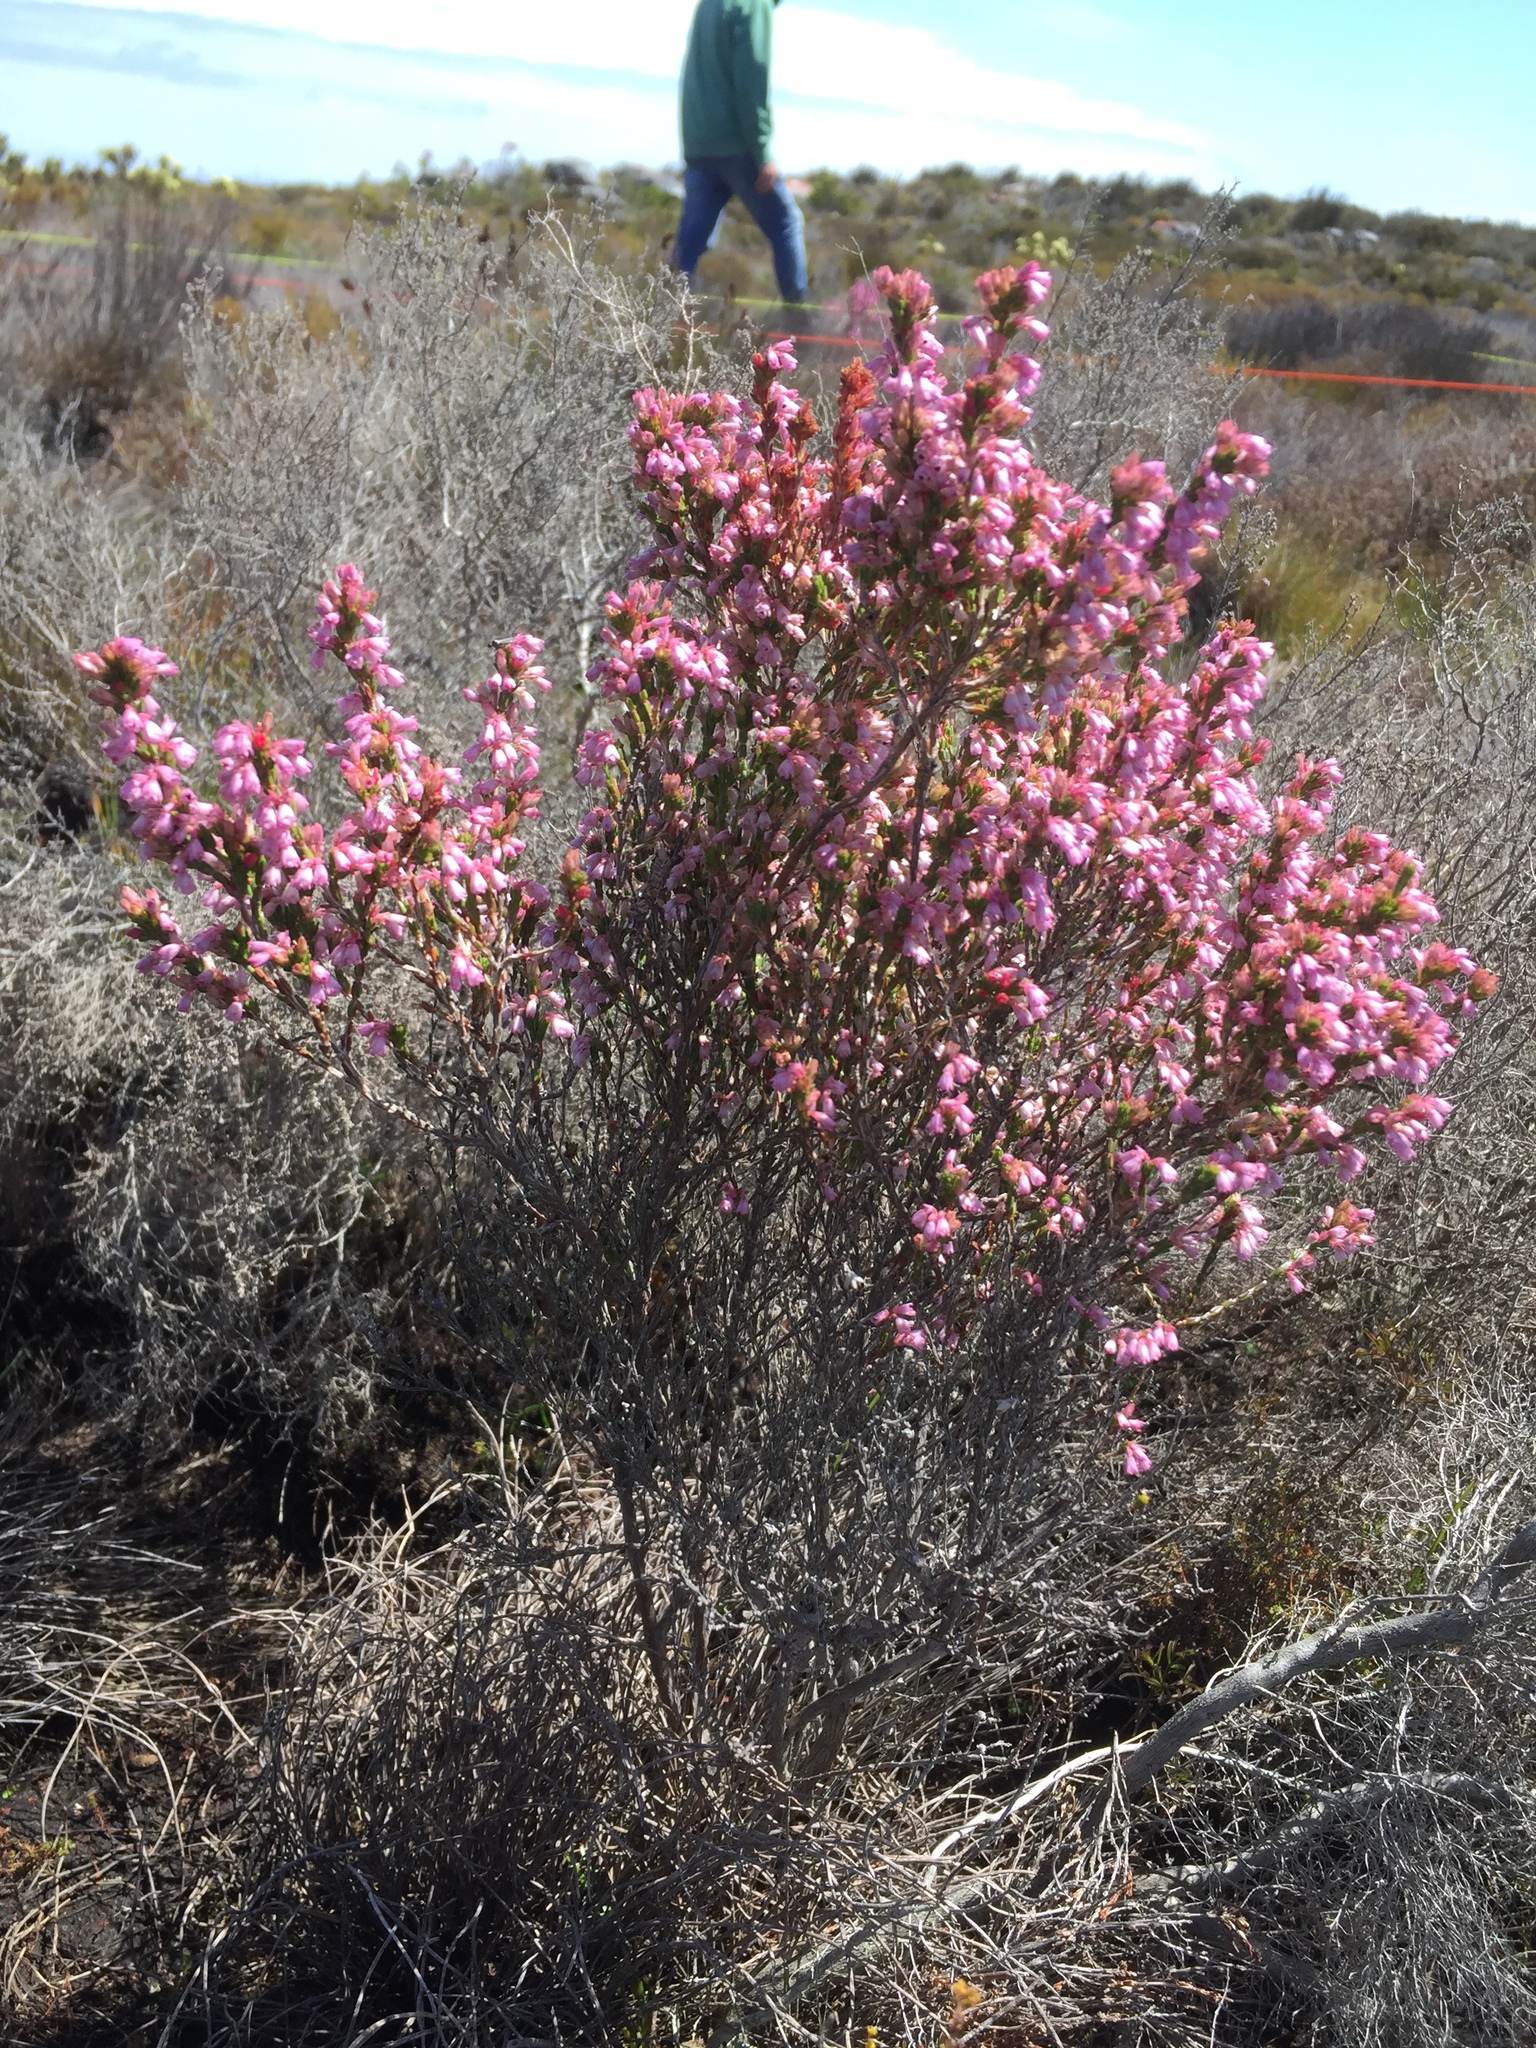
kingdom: Plantae
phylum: Tracheophyta
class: Magnoliopsida
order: Ericales
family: Ericaceae
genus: Erica
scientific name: Erica gnaphaloides
